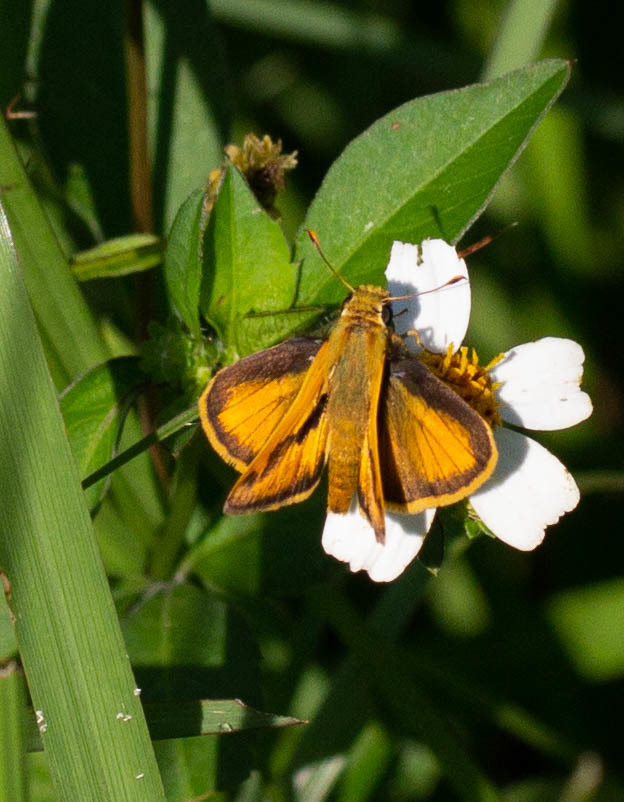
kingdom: Animalia
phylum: Arthropoda
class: Insecta
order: Lepidoptera
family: Hesperiidae
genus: Polites
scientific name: Polites vibex
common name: Whirlabout
